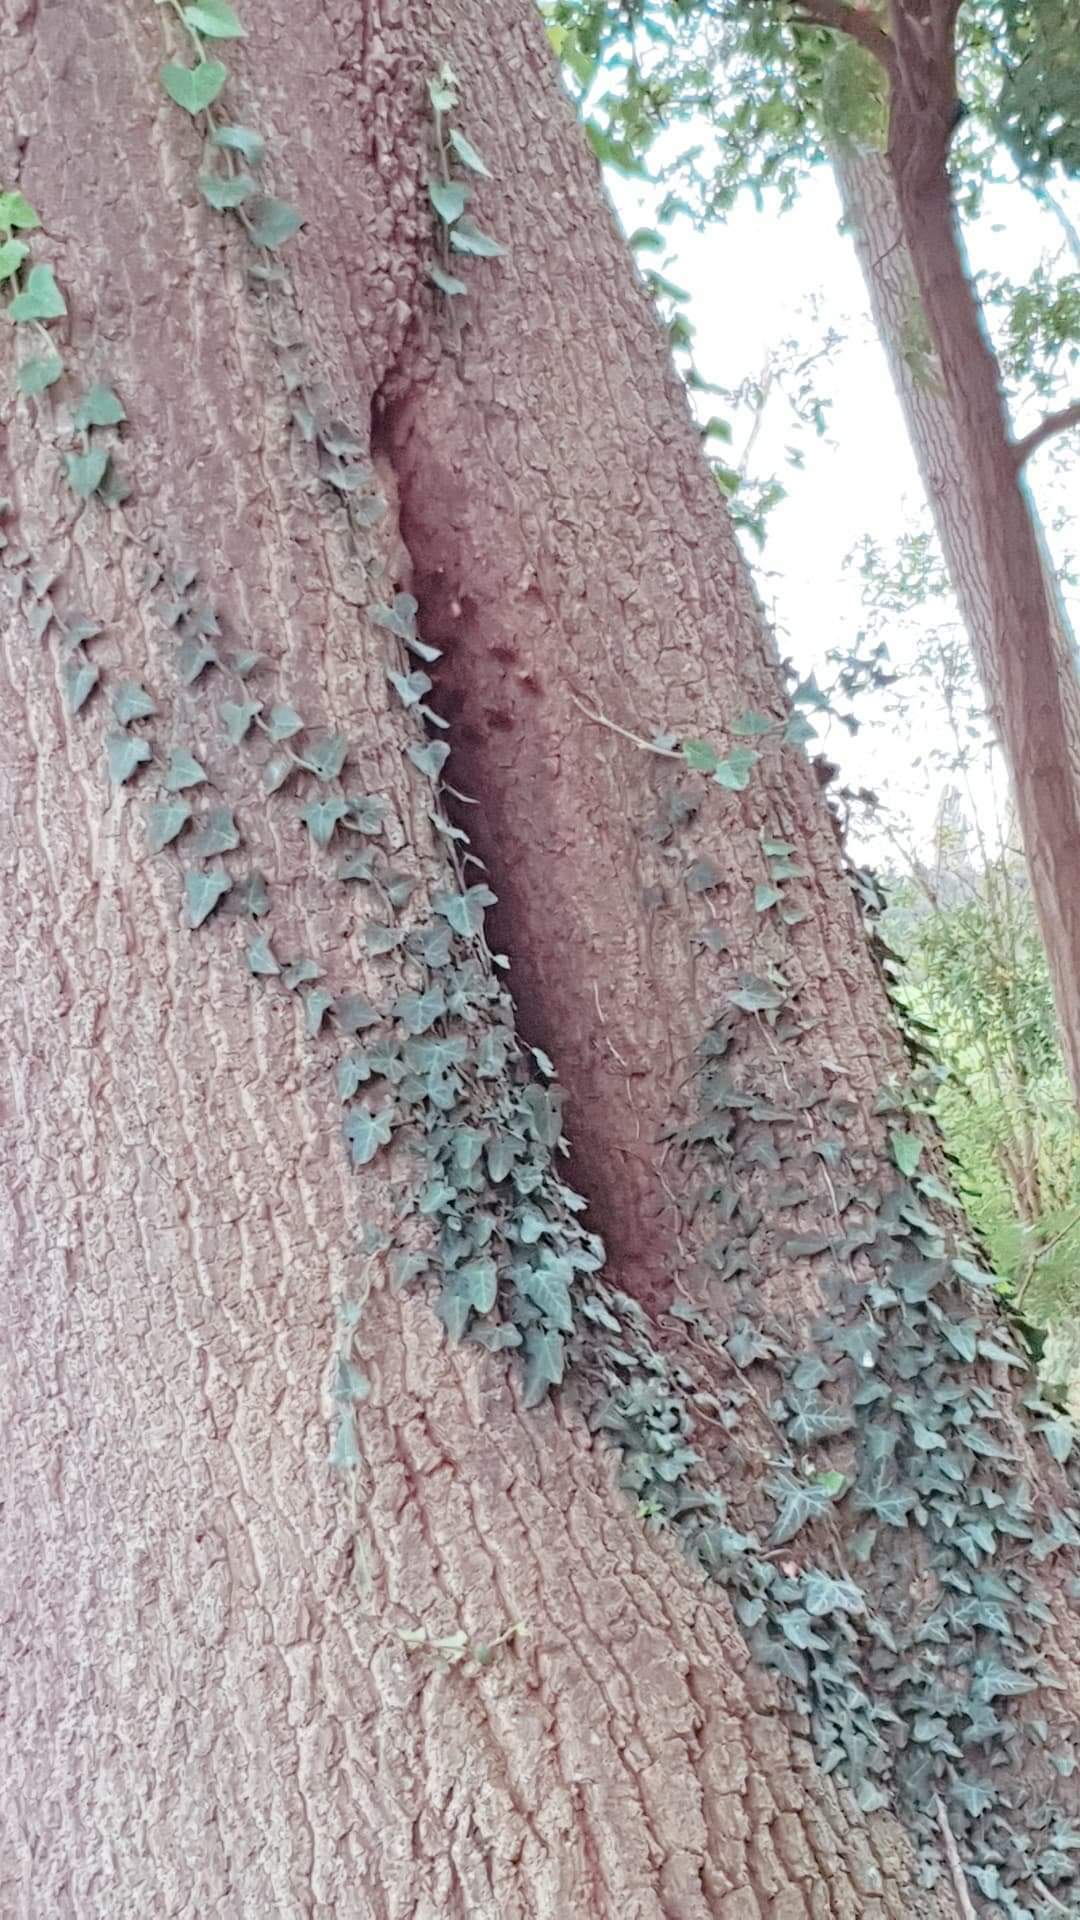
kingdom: Animalia
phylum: Arthropoda
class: Insecta
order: Hymenoptera
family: Vespidae
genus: Vespa
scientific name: Vespa crabro
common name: Hornet
